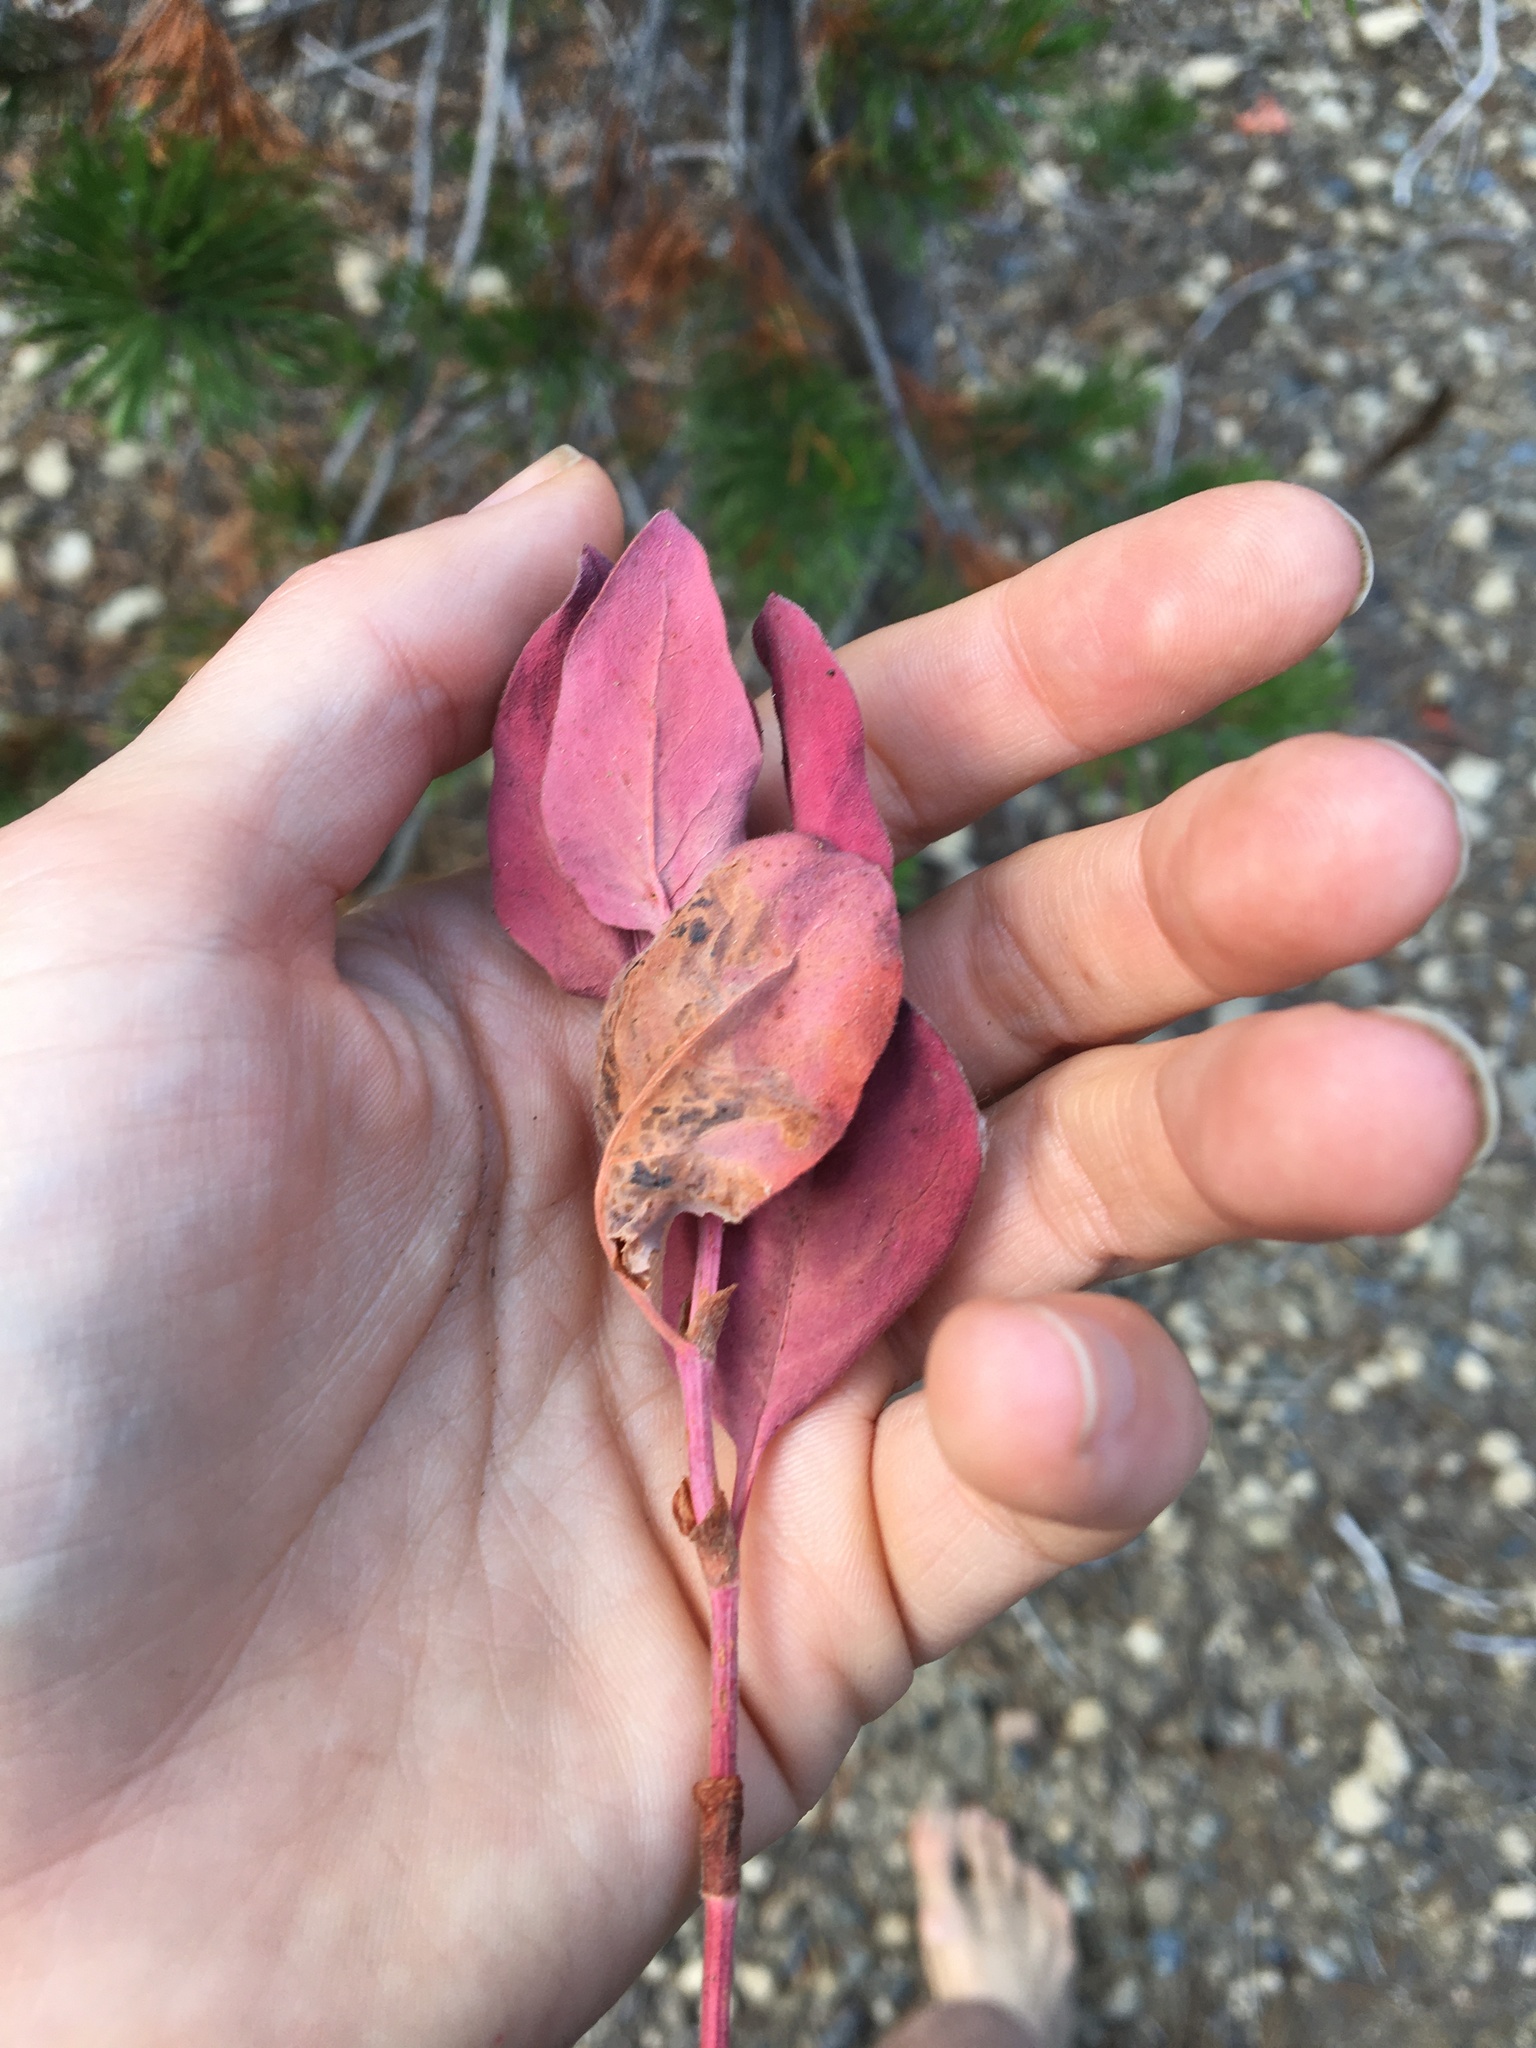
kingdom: Plantae
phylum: Tracheophyta
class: Magnoliopsida
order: Caryophyllales
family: Polygonaceae
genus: Koenigia
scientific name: Koenigia davisiae
